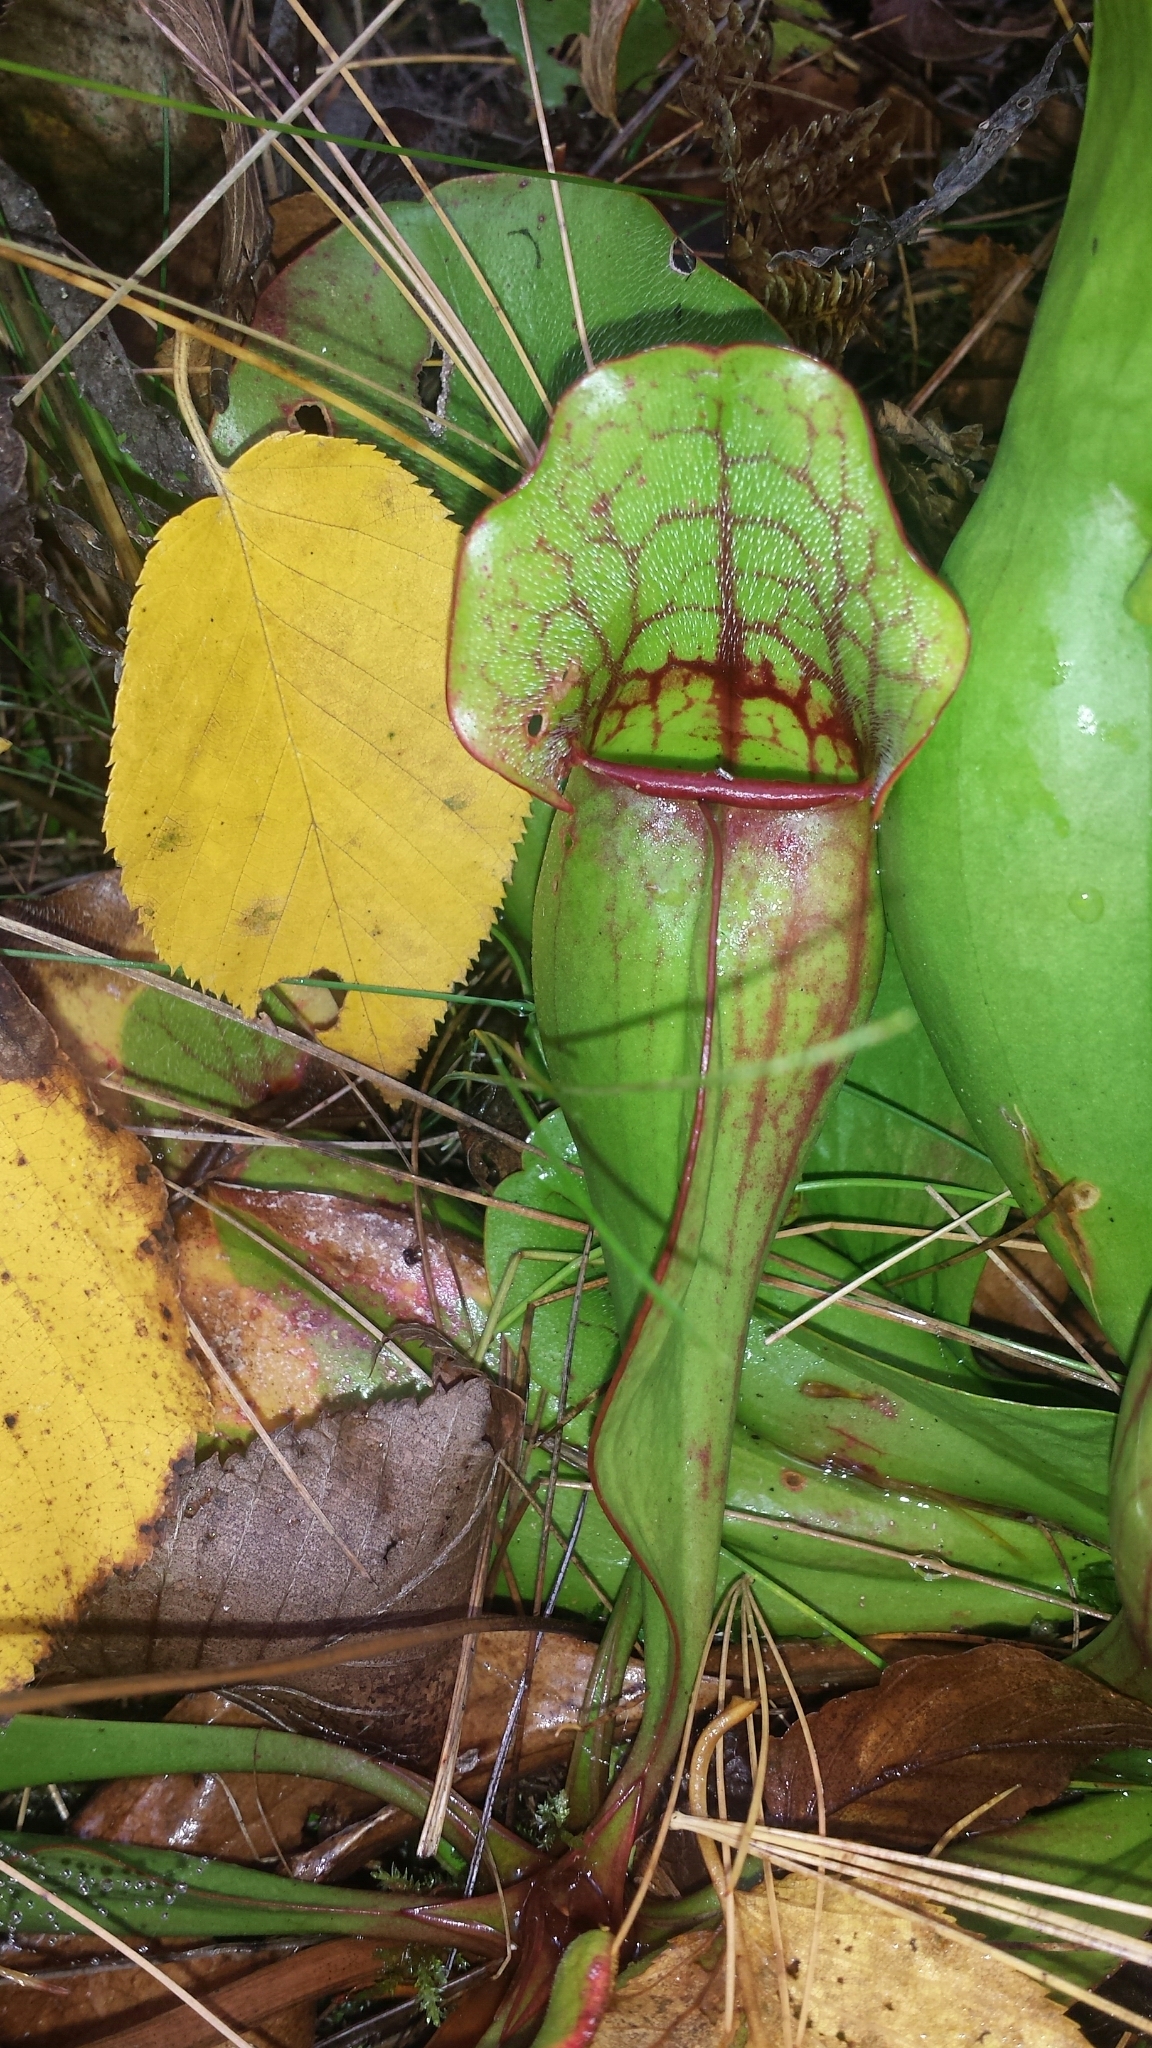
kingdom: Plantae
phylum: Tracheophyta
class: Magnoliopsida
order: Ericales
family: Sarraceniaceae
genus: Sarracenia
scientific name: Sarracenia purpurea
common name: Pitcherplant
